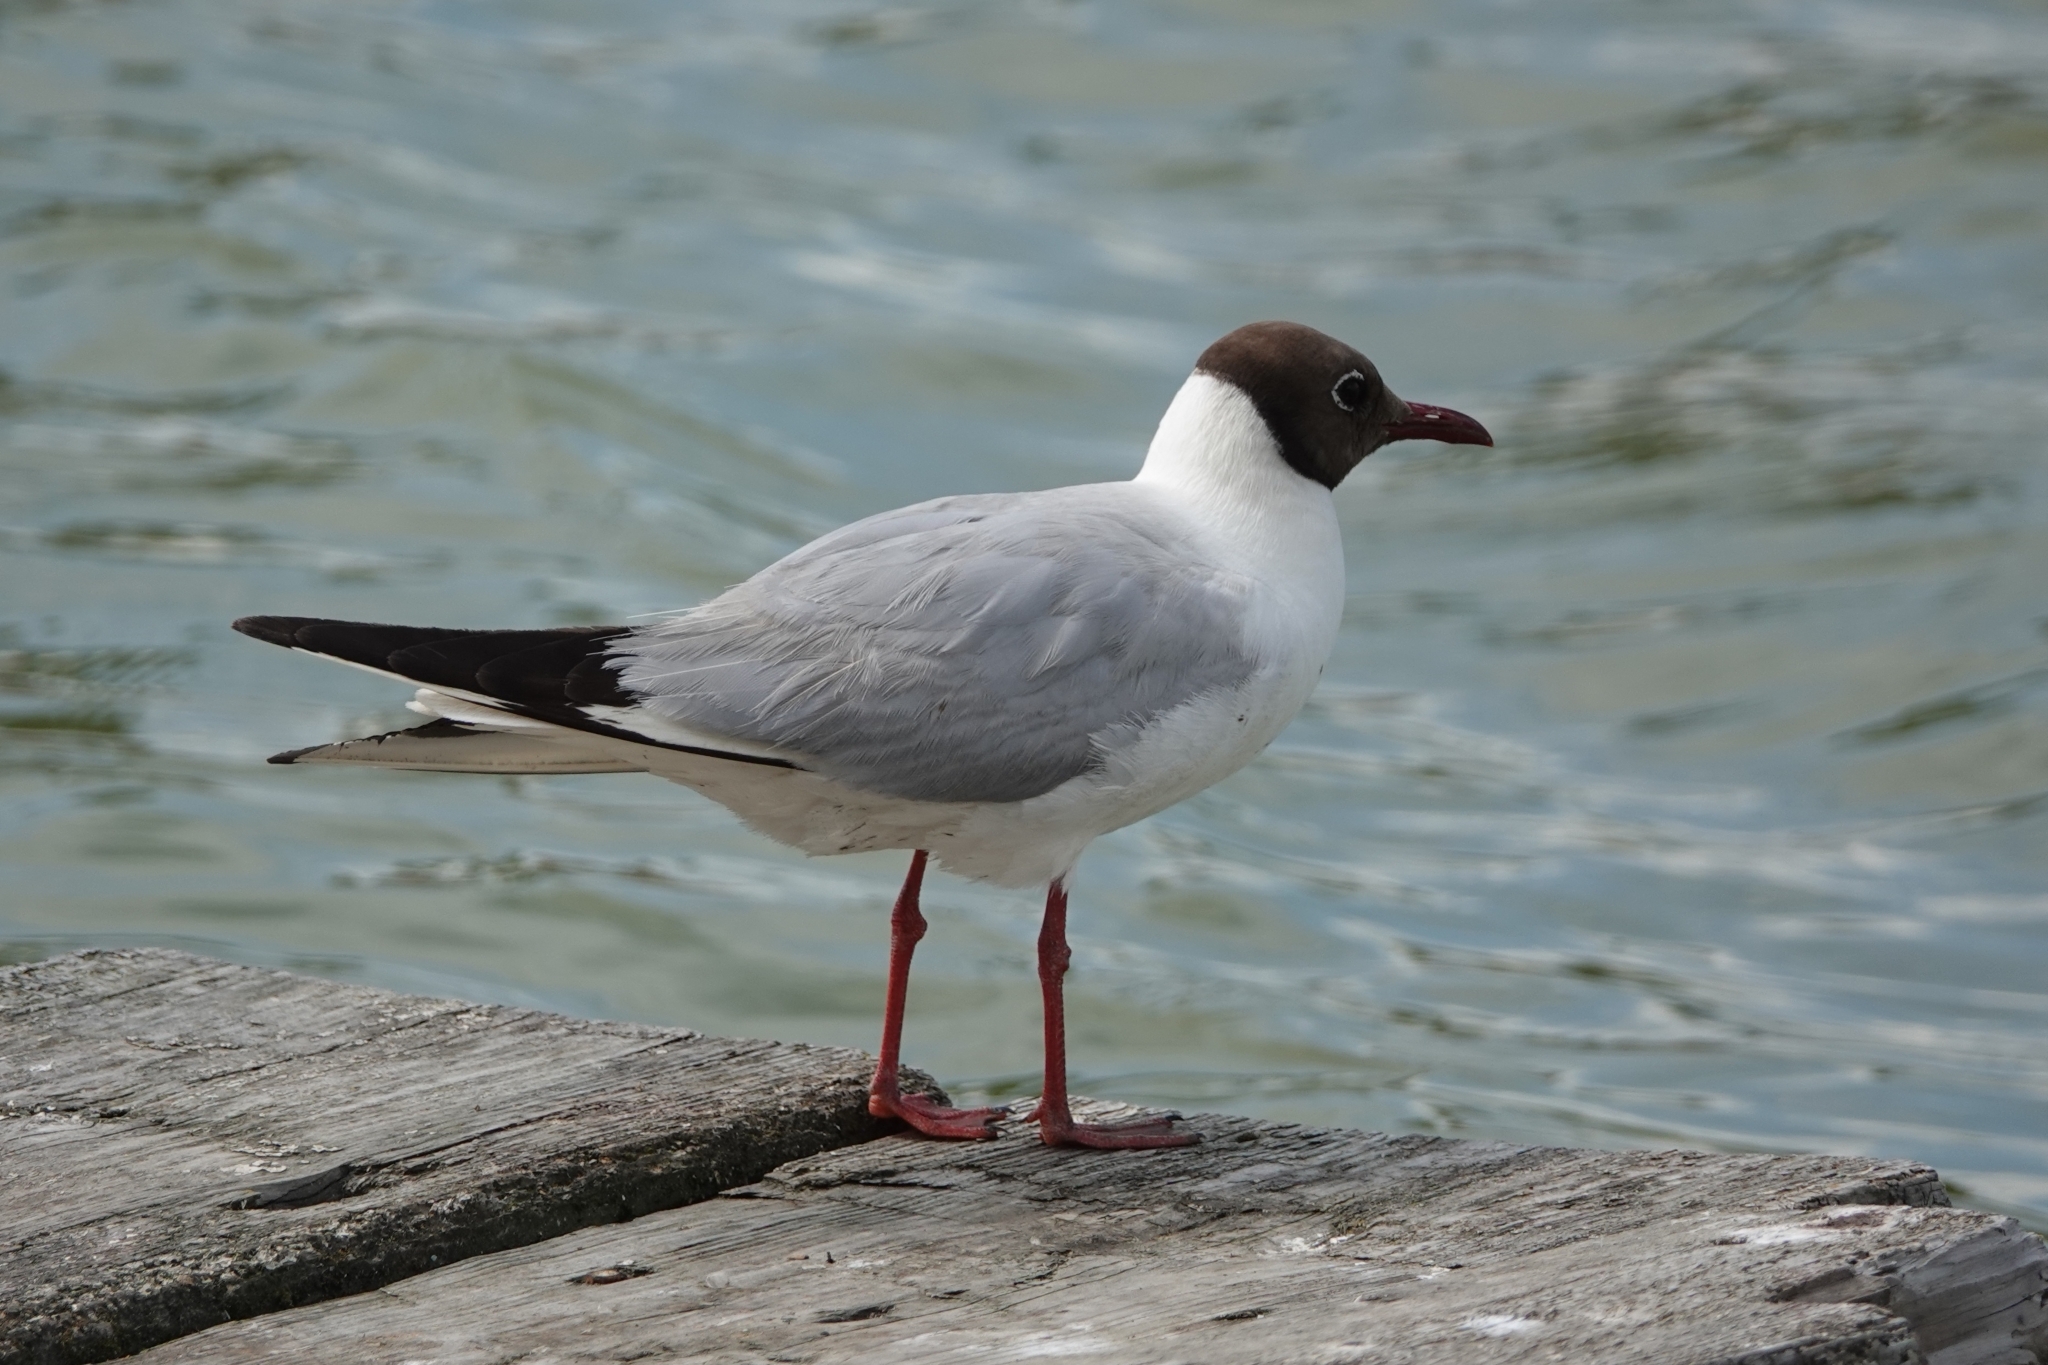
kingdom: Animalia
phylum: Chordata
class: Aves
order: Charadriiformes
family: Laridae
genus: Chroicocephalus
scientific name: Chroicocephalus ridibundus
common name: Black-headed gull
